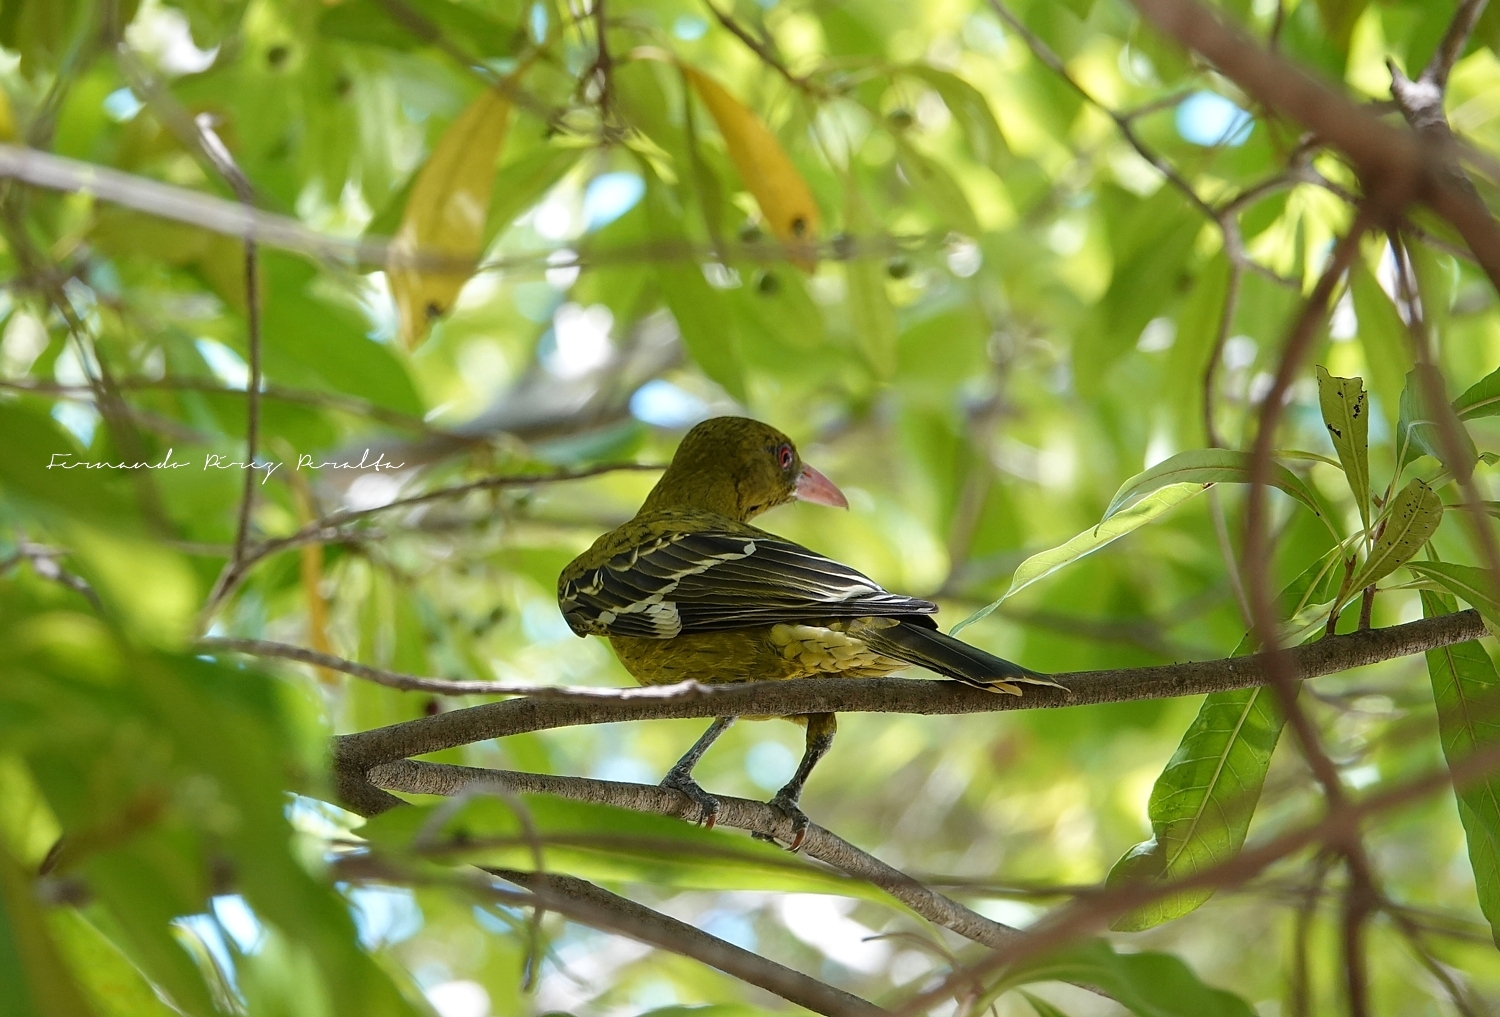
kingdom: Animalia
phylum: Chordata
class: Aves
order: Passeriformes
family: Oriolidae
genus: Oriolus
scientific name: Oriolus flavocinctus
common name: Green oriole
